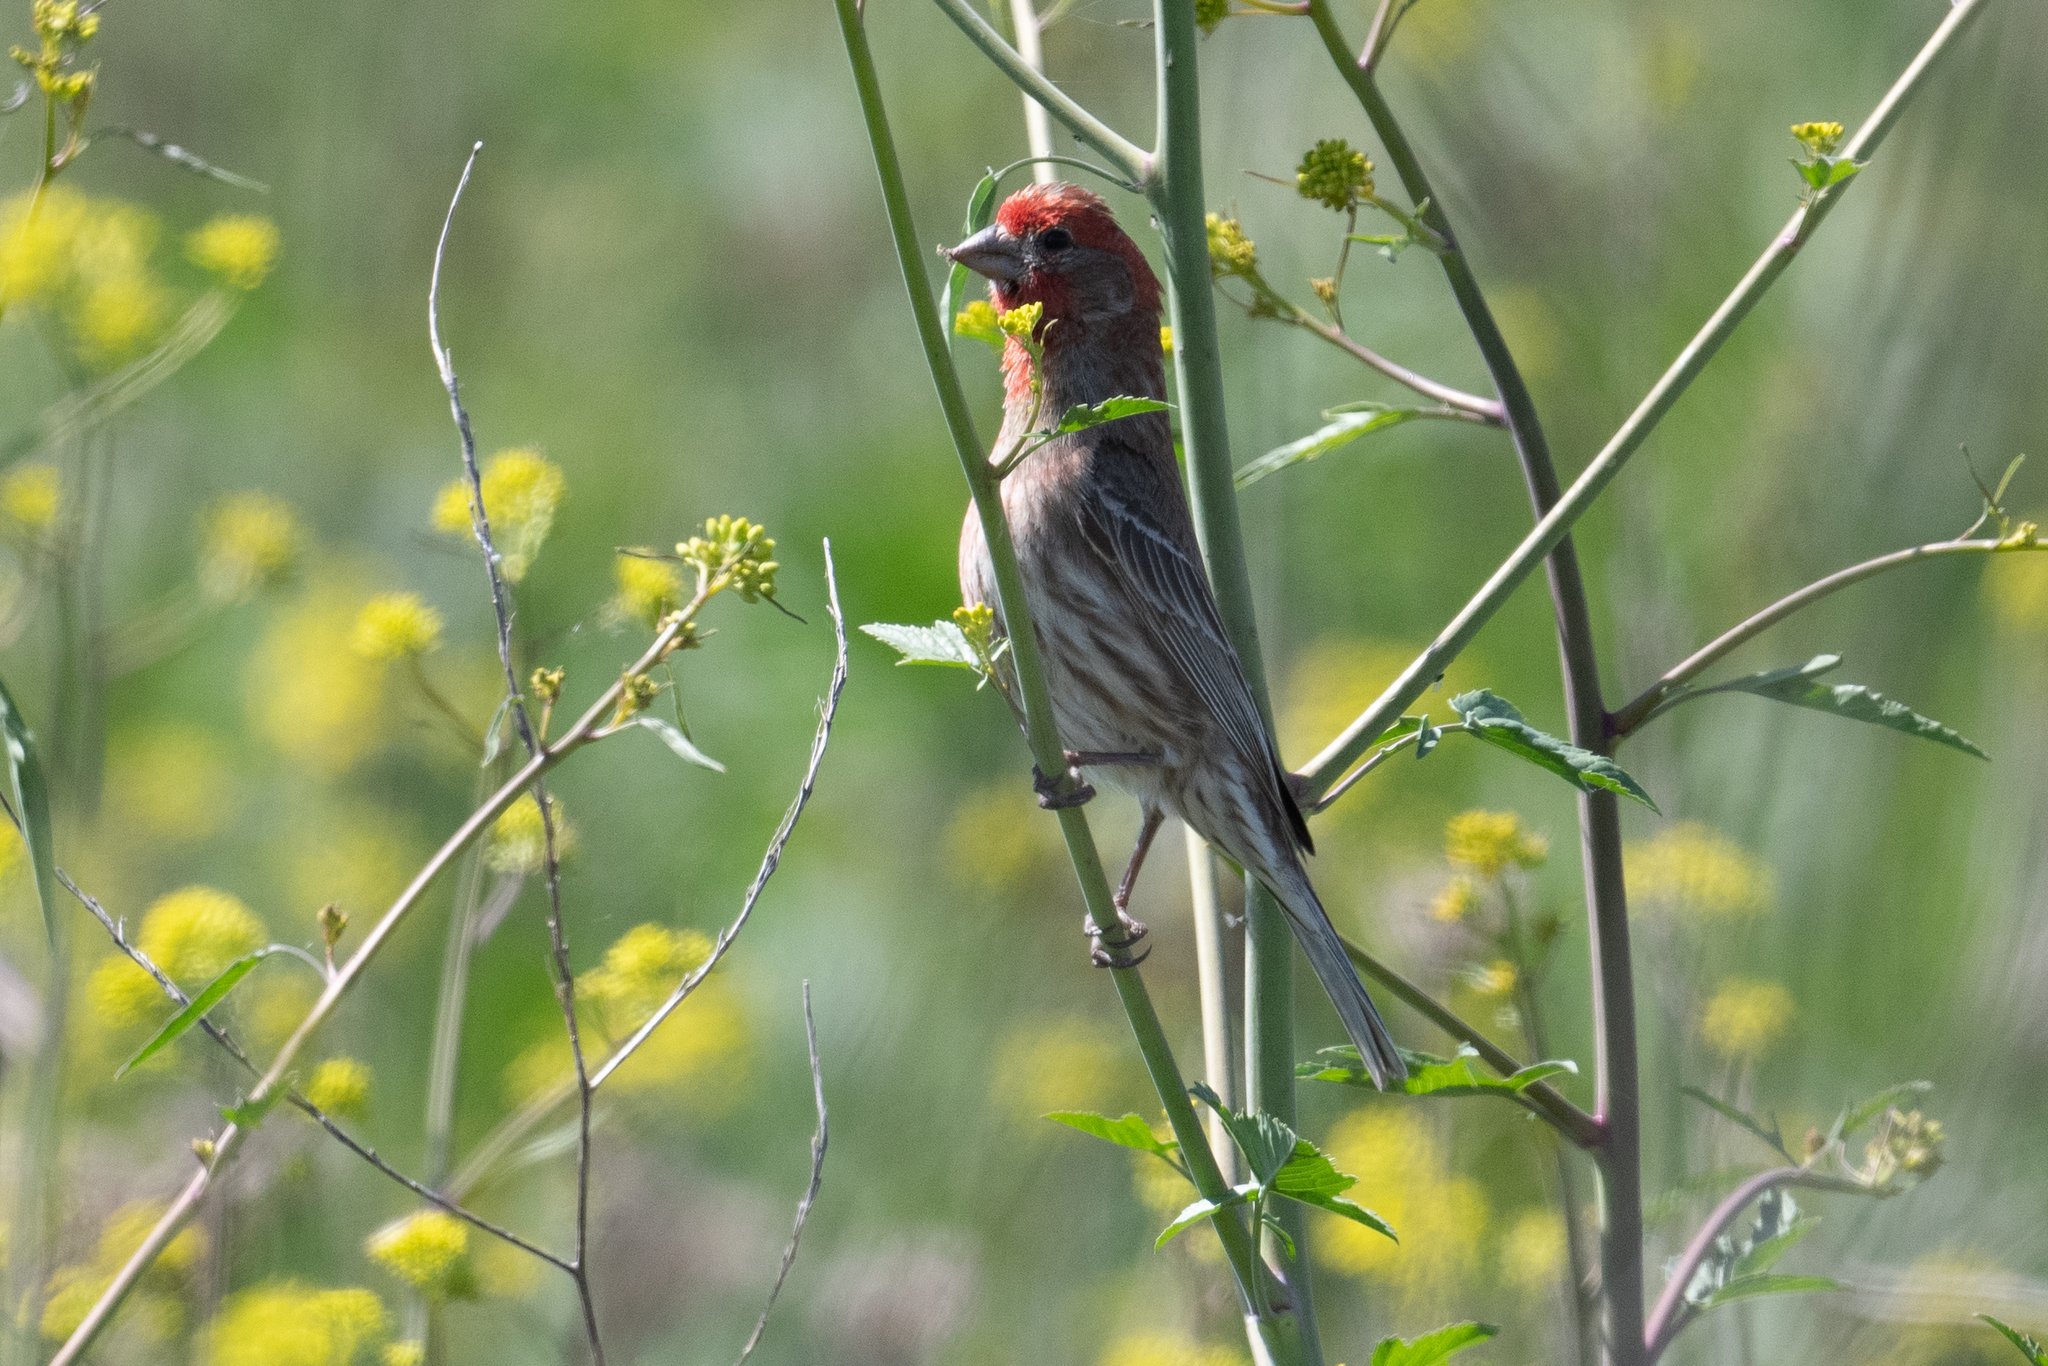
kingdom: Animalia
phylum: Chordata
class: Aves
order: Passeriformes
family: Fringillidae
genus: Haemorhous
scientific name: Haemorhous mexicanus
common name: House finch
